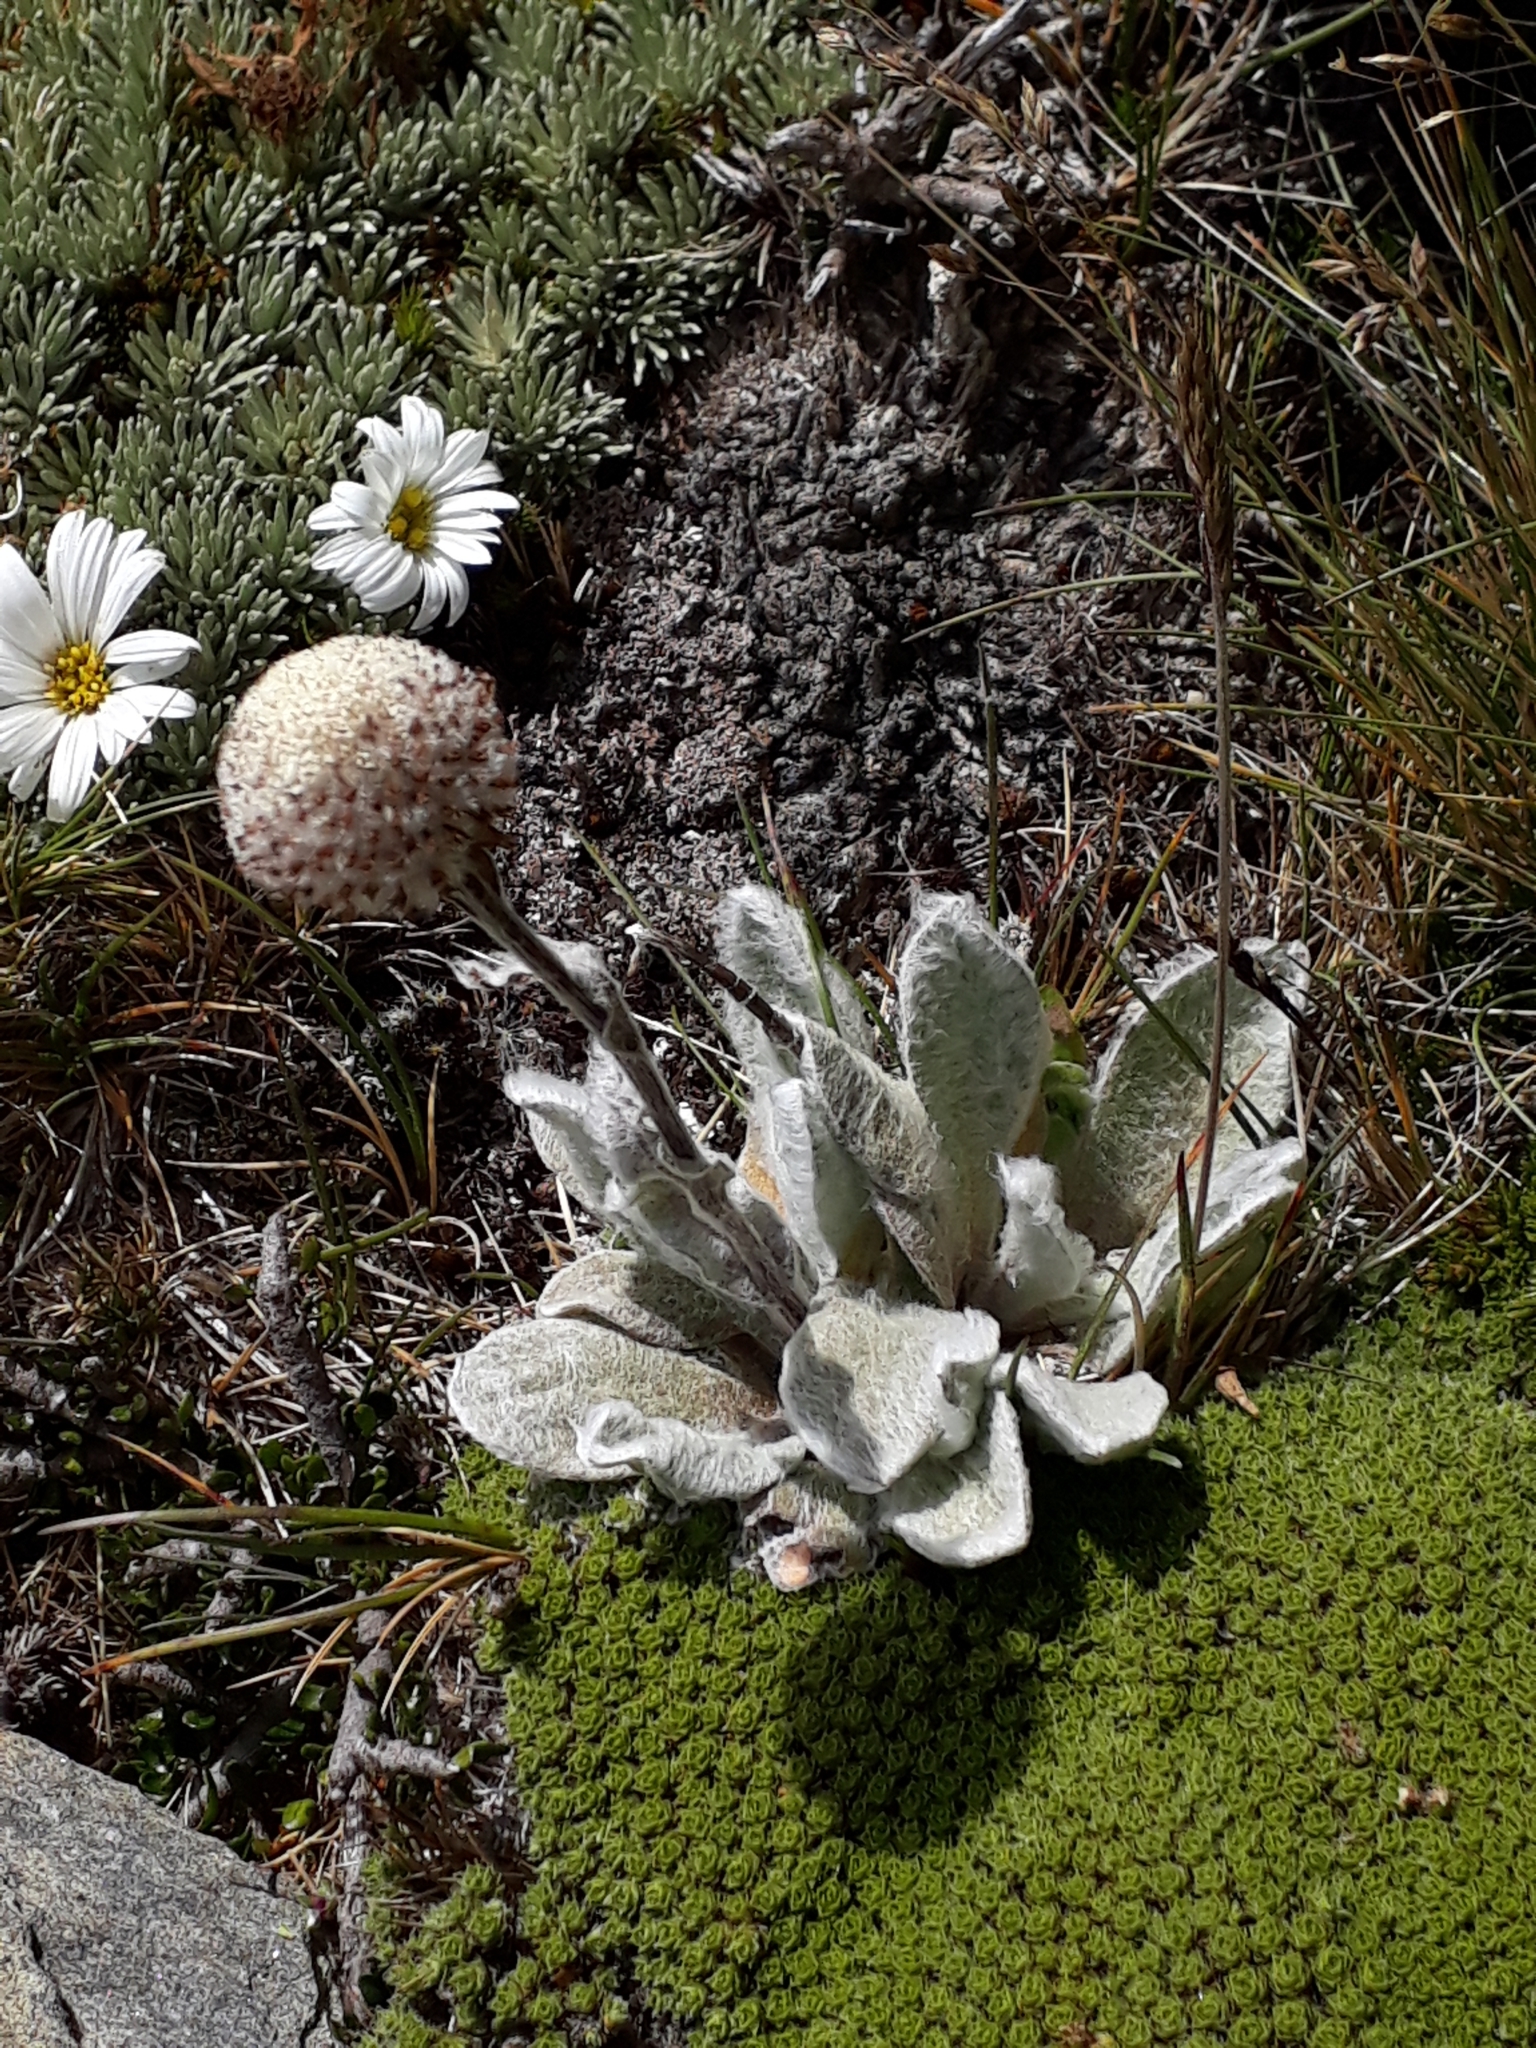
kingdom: Plantae
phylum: Tracheophyta
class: Magnoliopsida
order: Asterales
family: Asteraceae
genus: Craspedia
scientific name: Craspedia lanata
